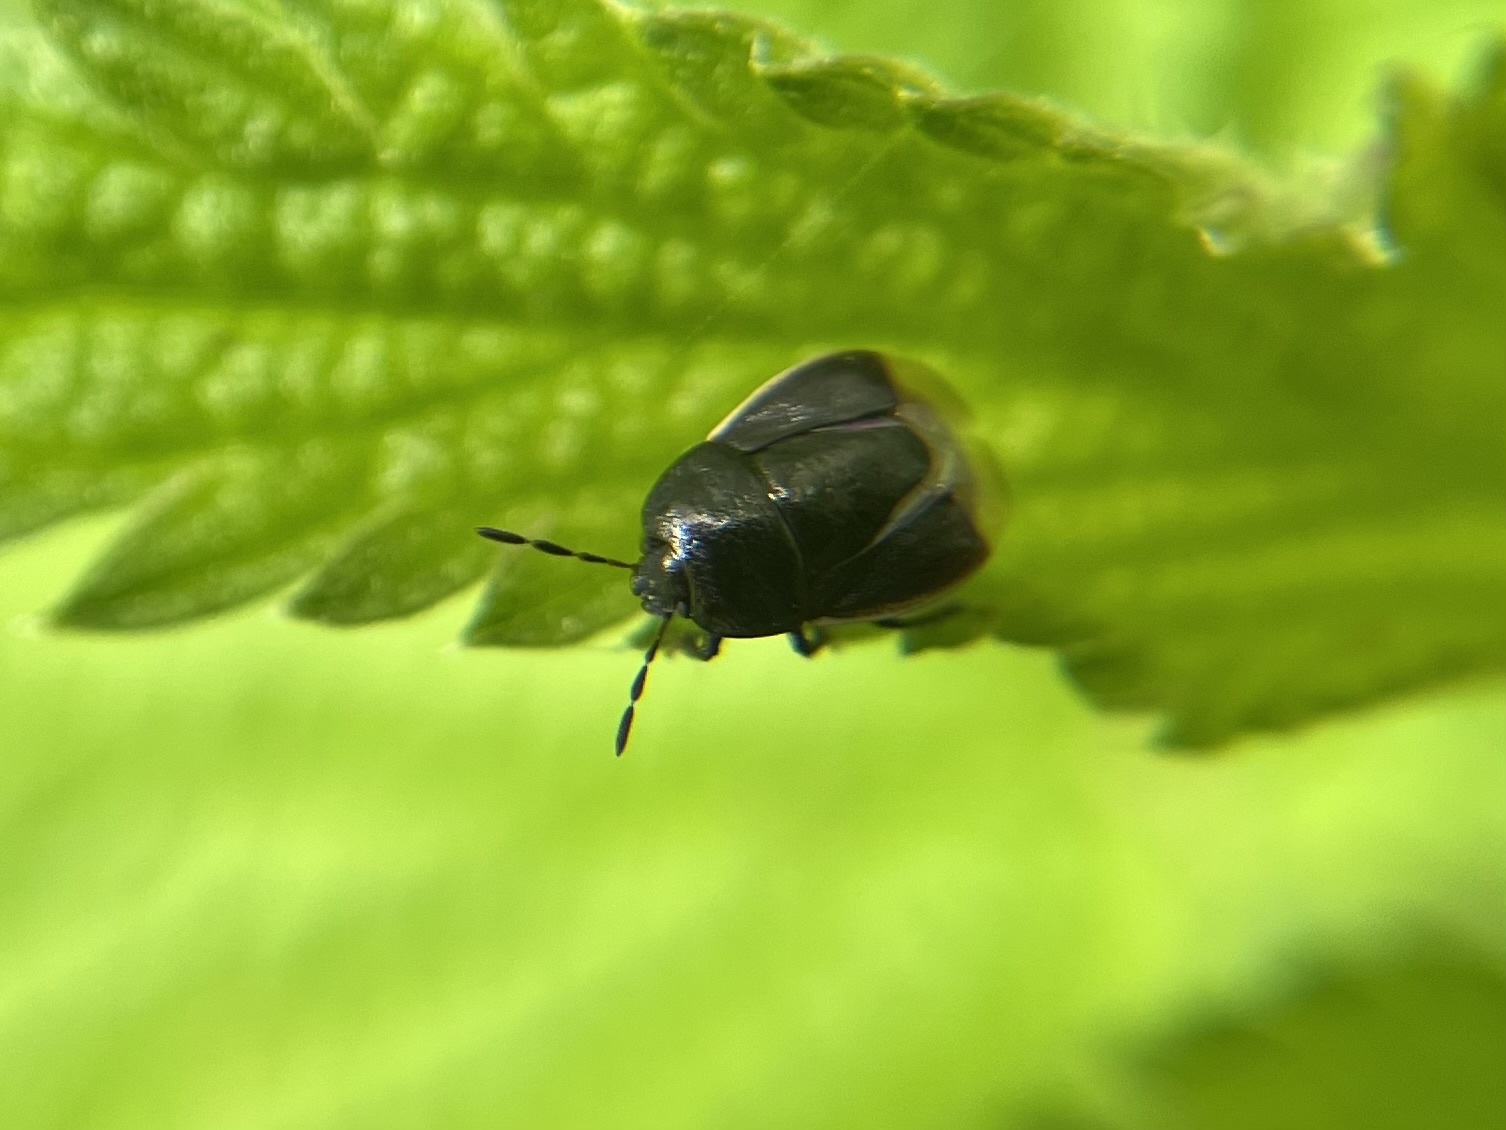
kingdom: Animalia
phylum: Arthropoda
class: Insecta
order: Hemiptera
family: Cydnidae
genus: Legnotus
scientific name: Legnotus limbosus
